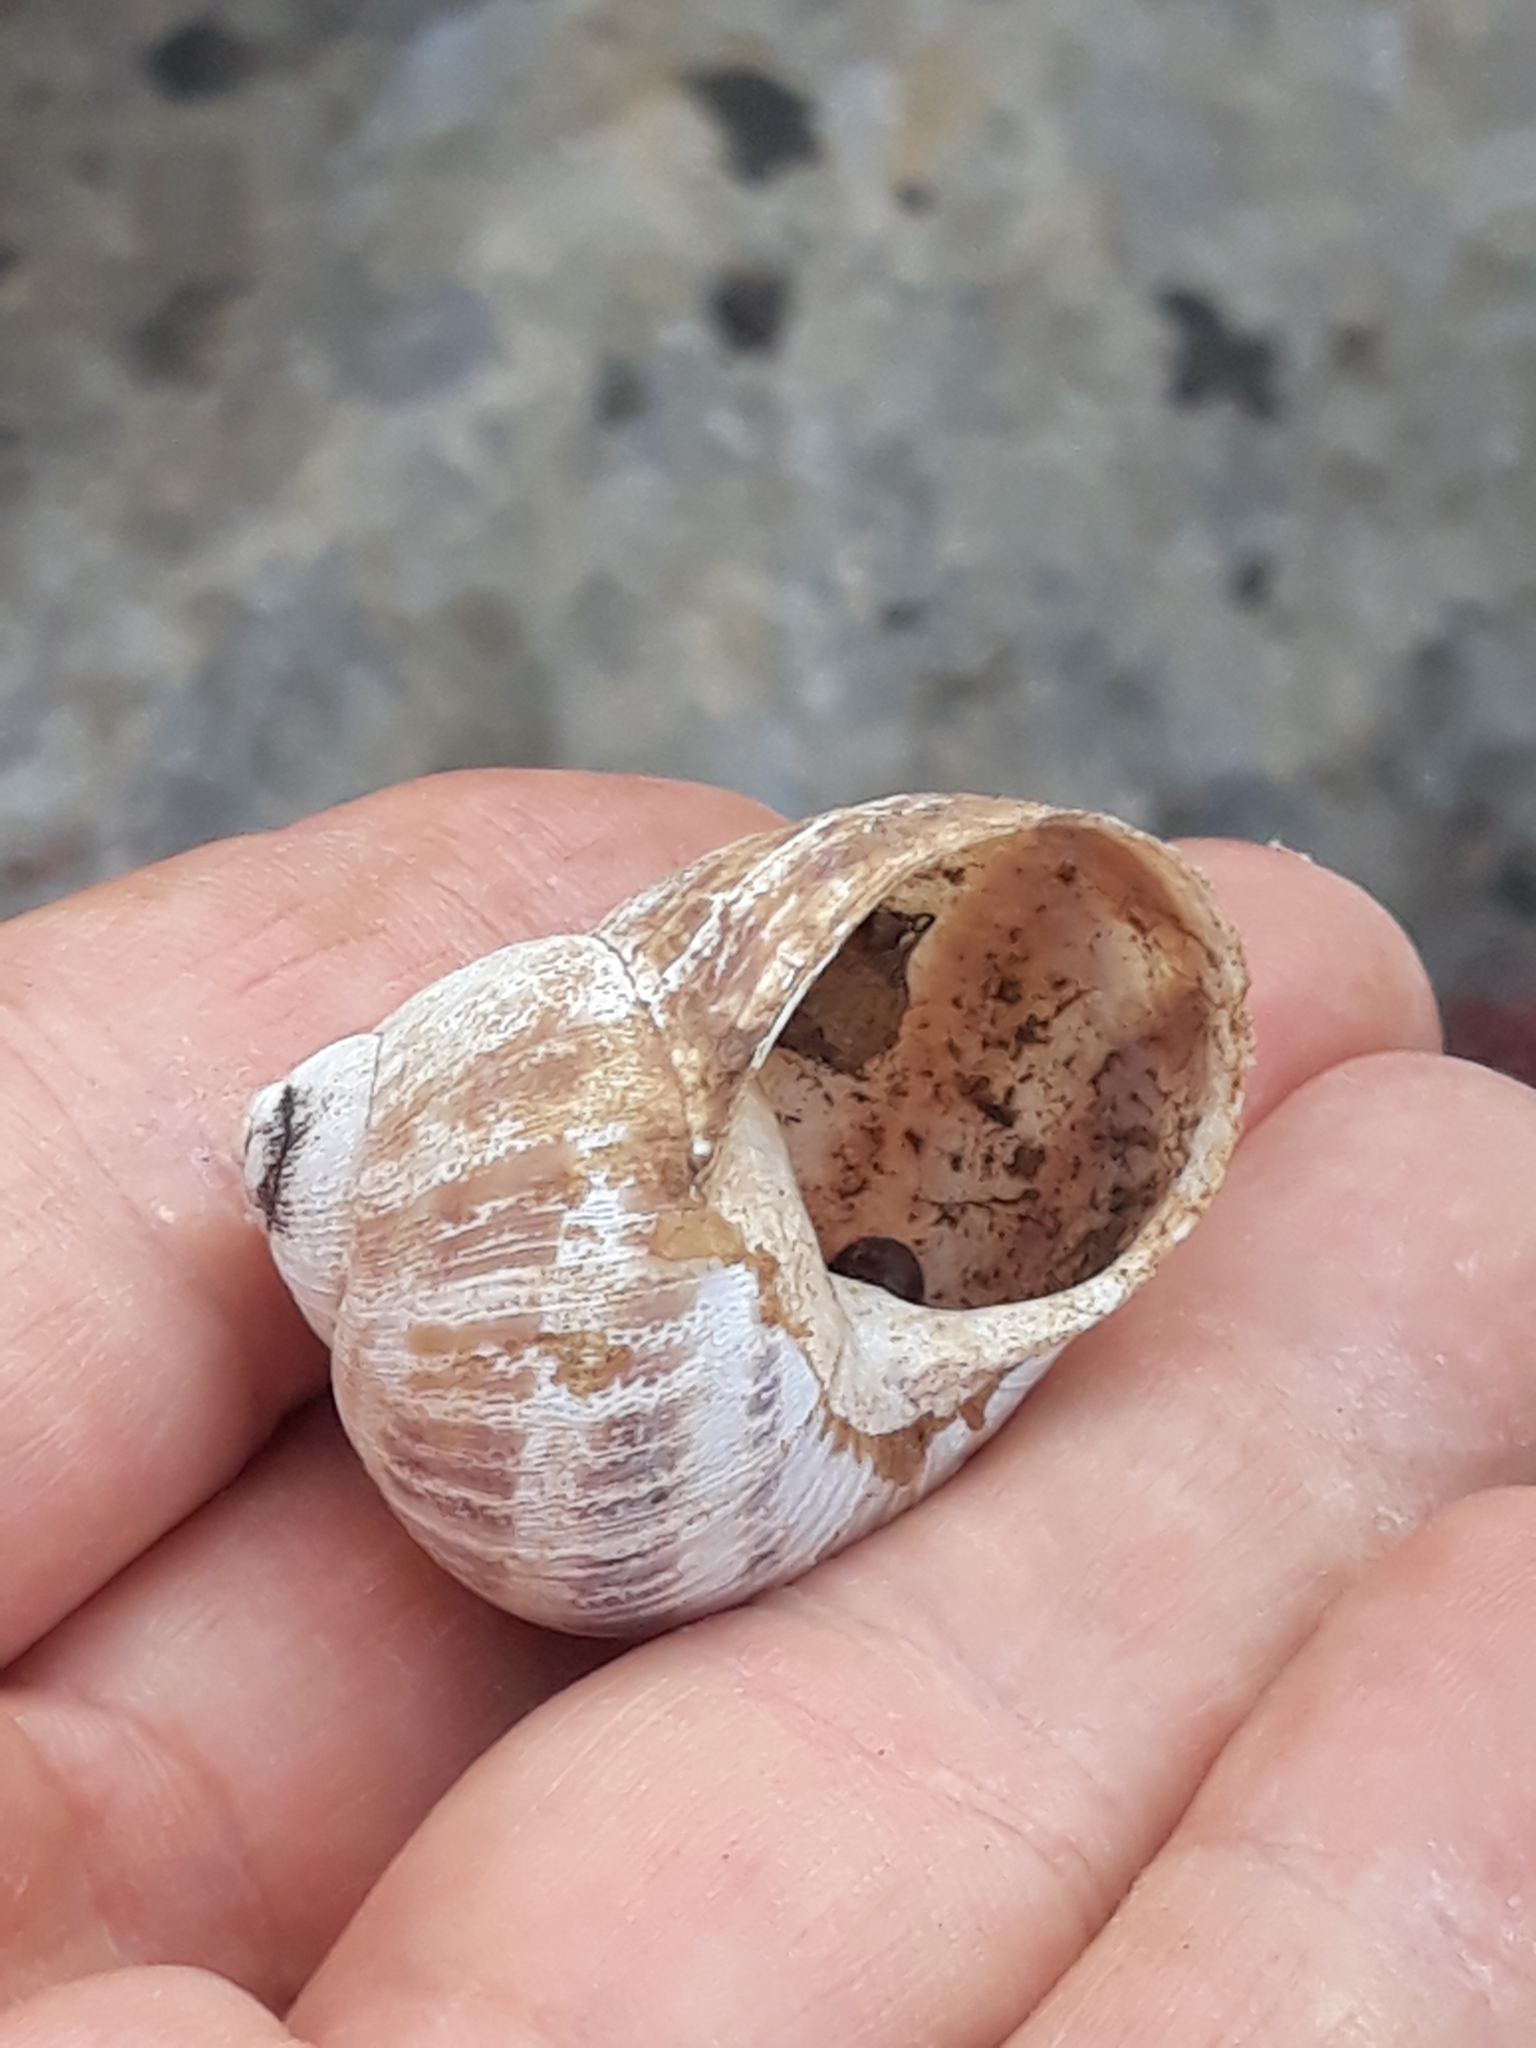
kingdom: Animalia
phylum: Mollusca
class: Gastropoda
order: Stylommatophora
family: Helicidae
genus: Cornu
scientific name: Cornu aspersum
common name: Brown garden snail
